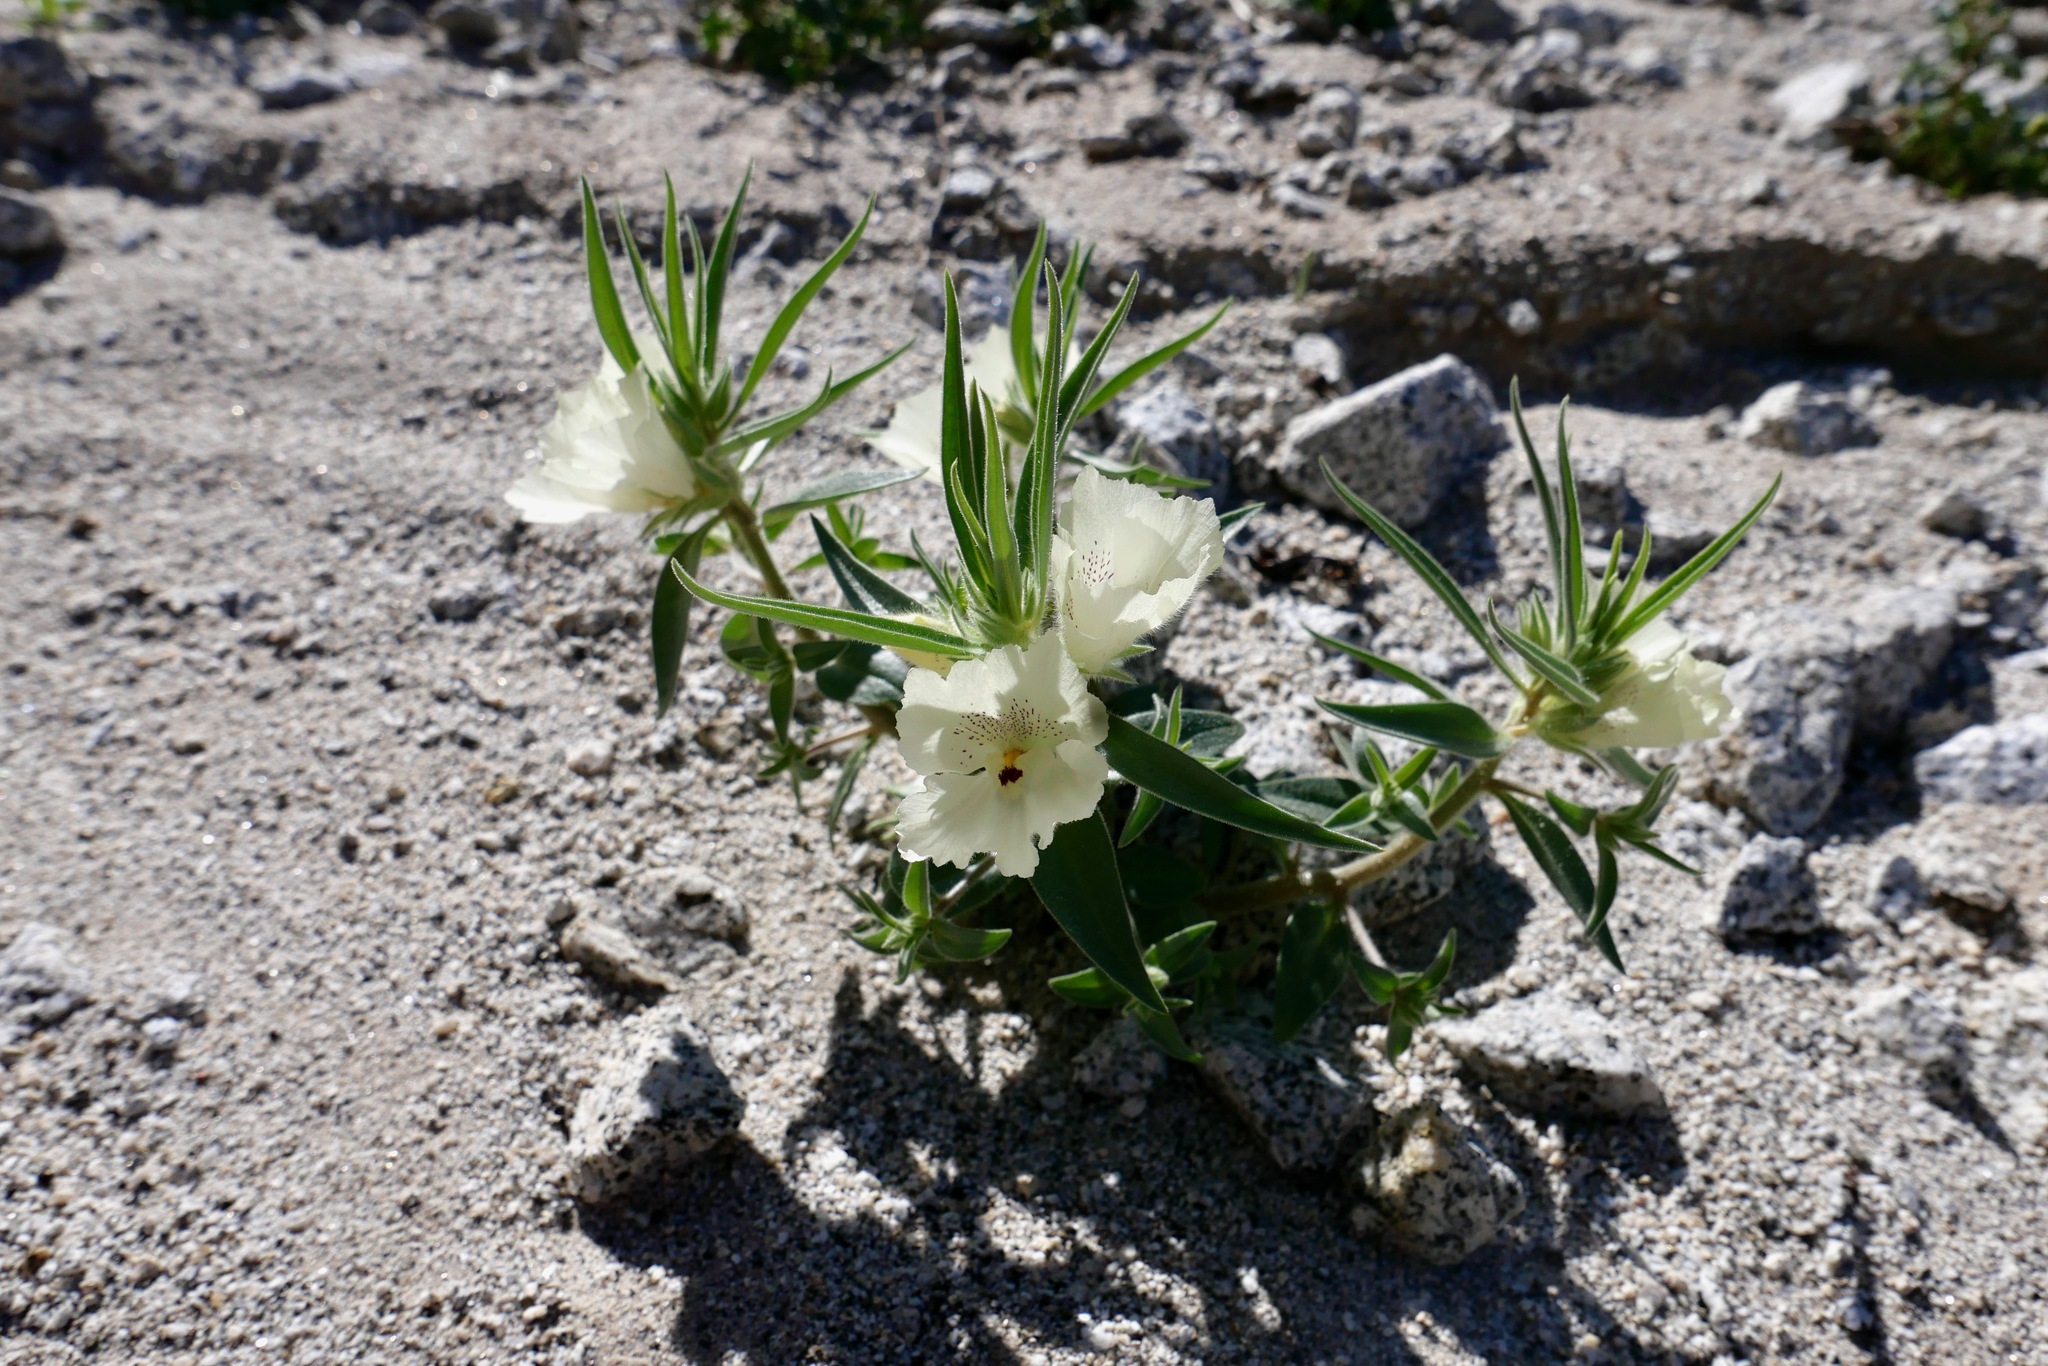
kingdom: Plantae
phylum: Tracheophyta
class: Magnoliopsida
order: Lamiales
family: Plantaginaceae
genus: Mohavea
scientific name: Mohavea confertiflora
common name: Ghost flower
